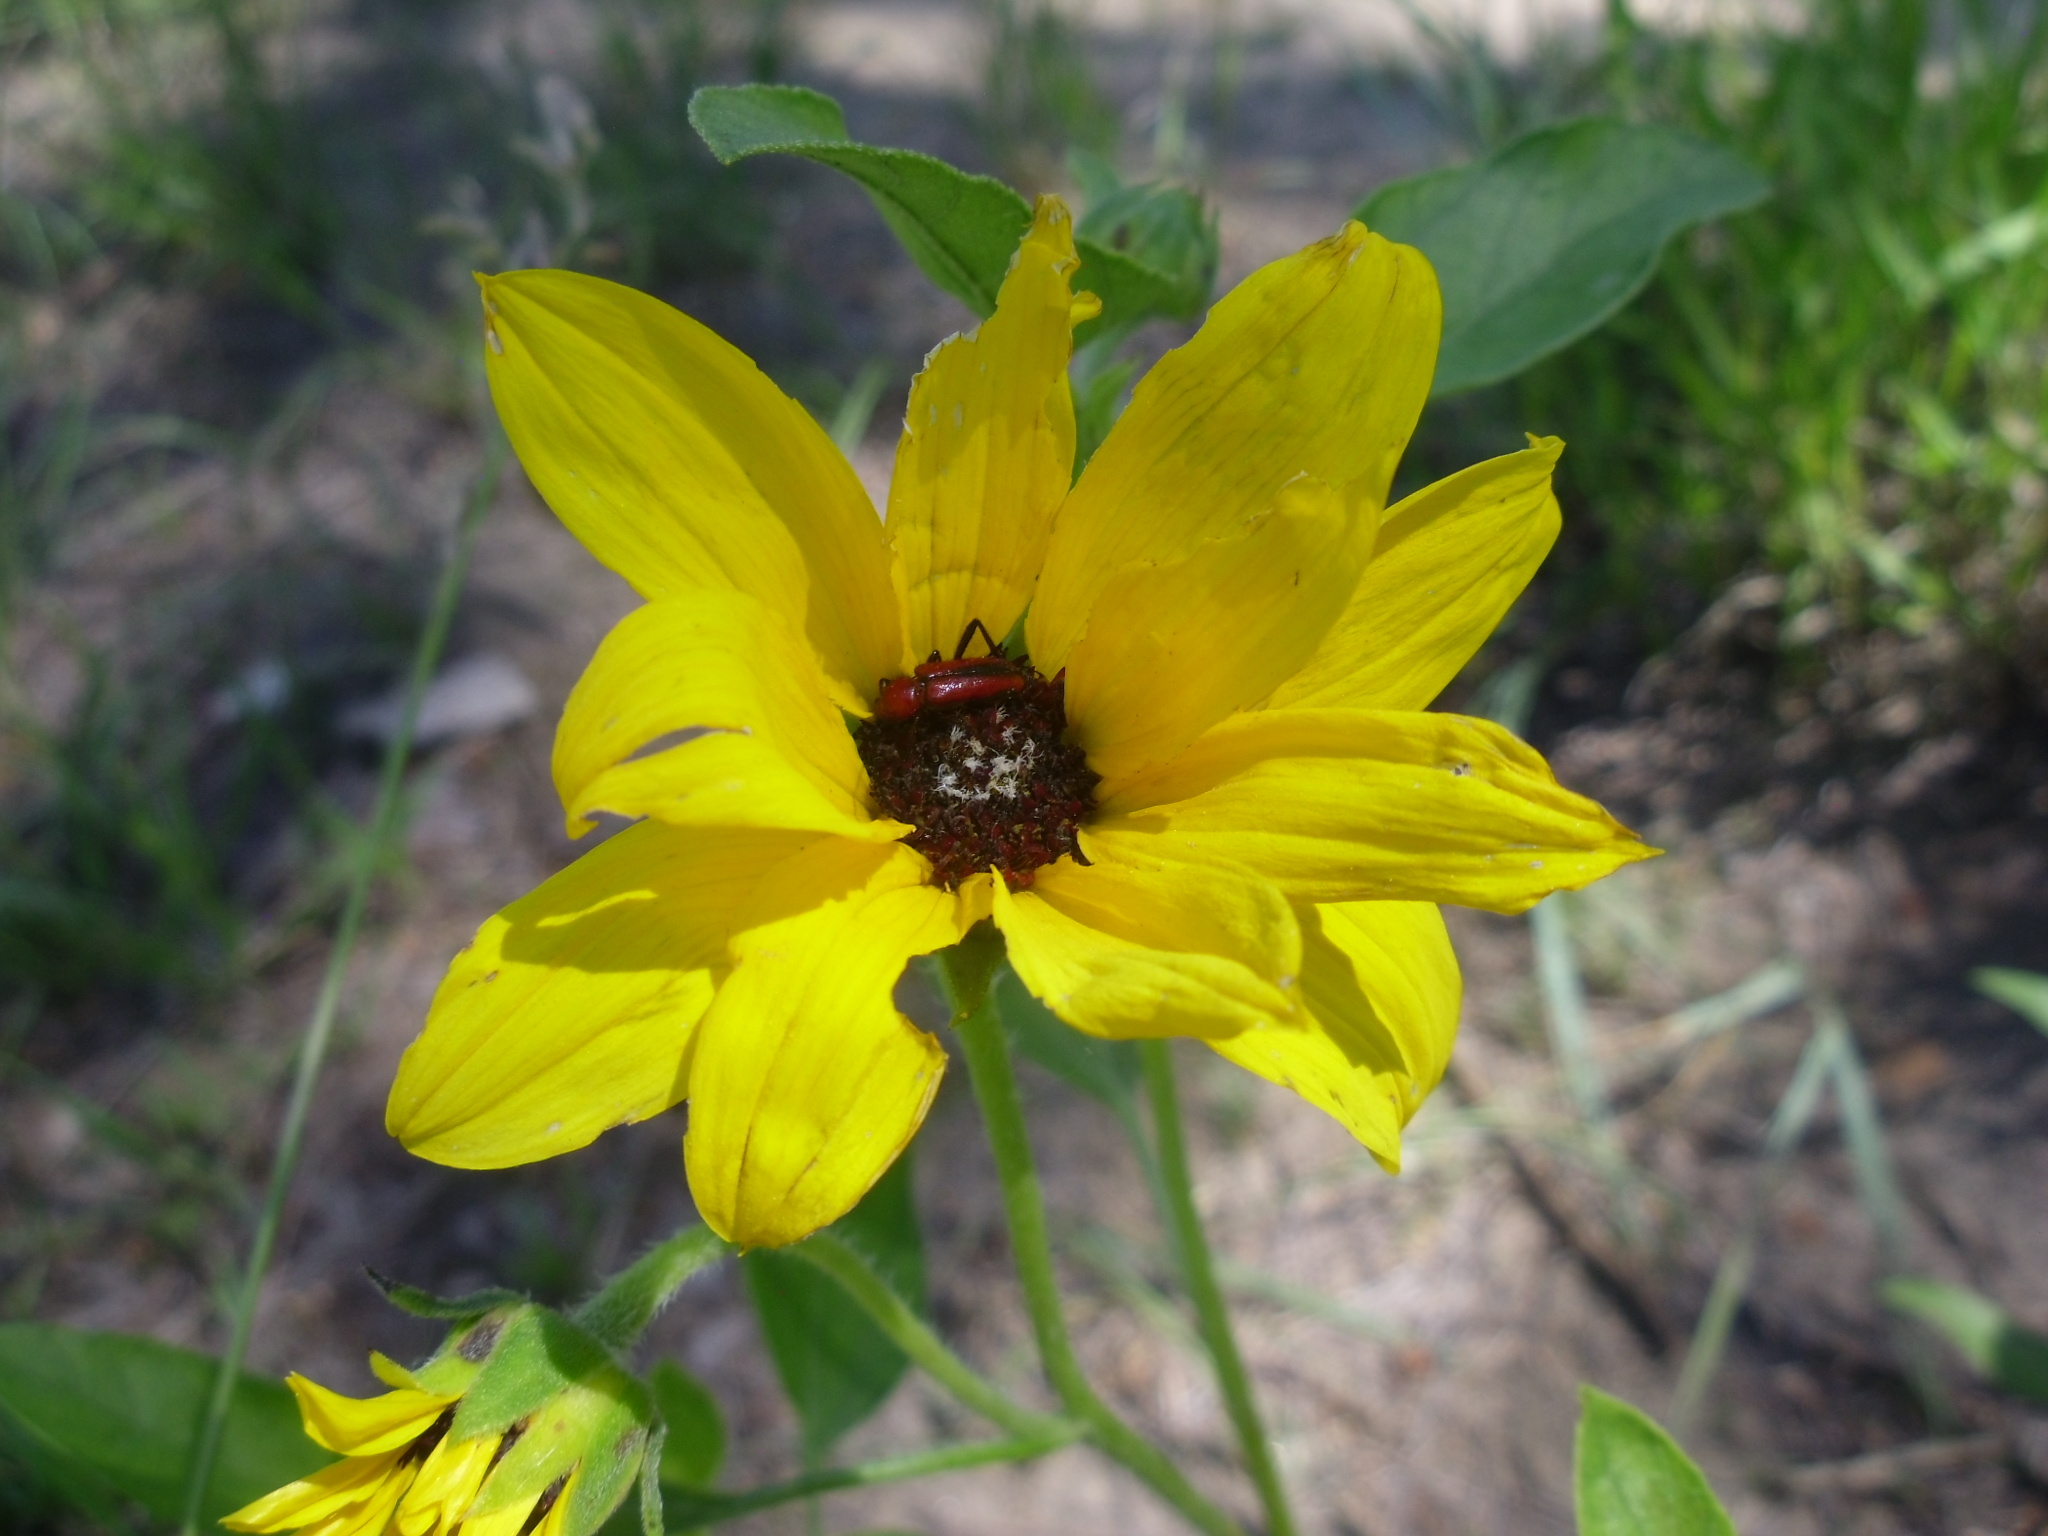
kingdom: Animalia
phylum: Arthropoda
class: Insecta
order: Coleoptera
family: Cerambycidae
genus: Batyle
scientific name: Batyle suturalis
